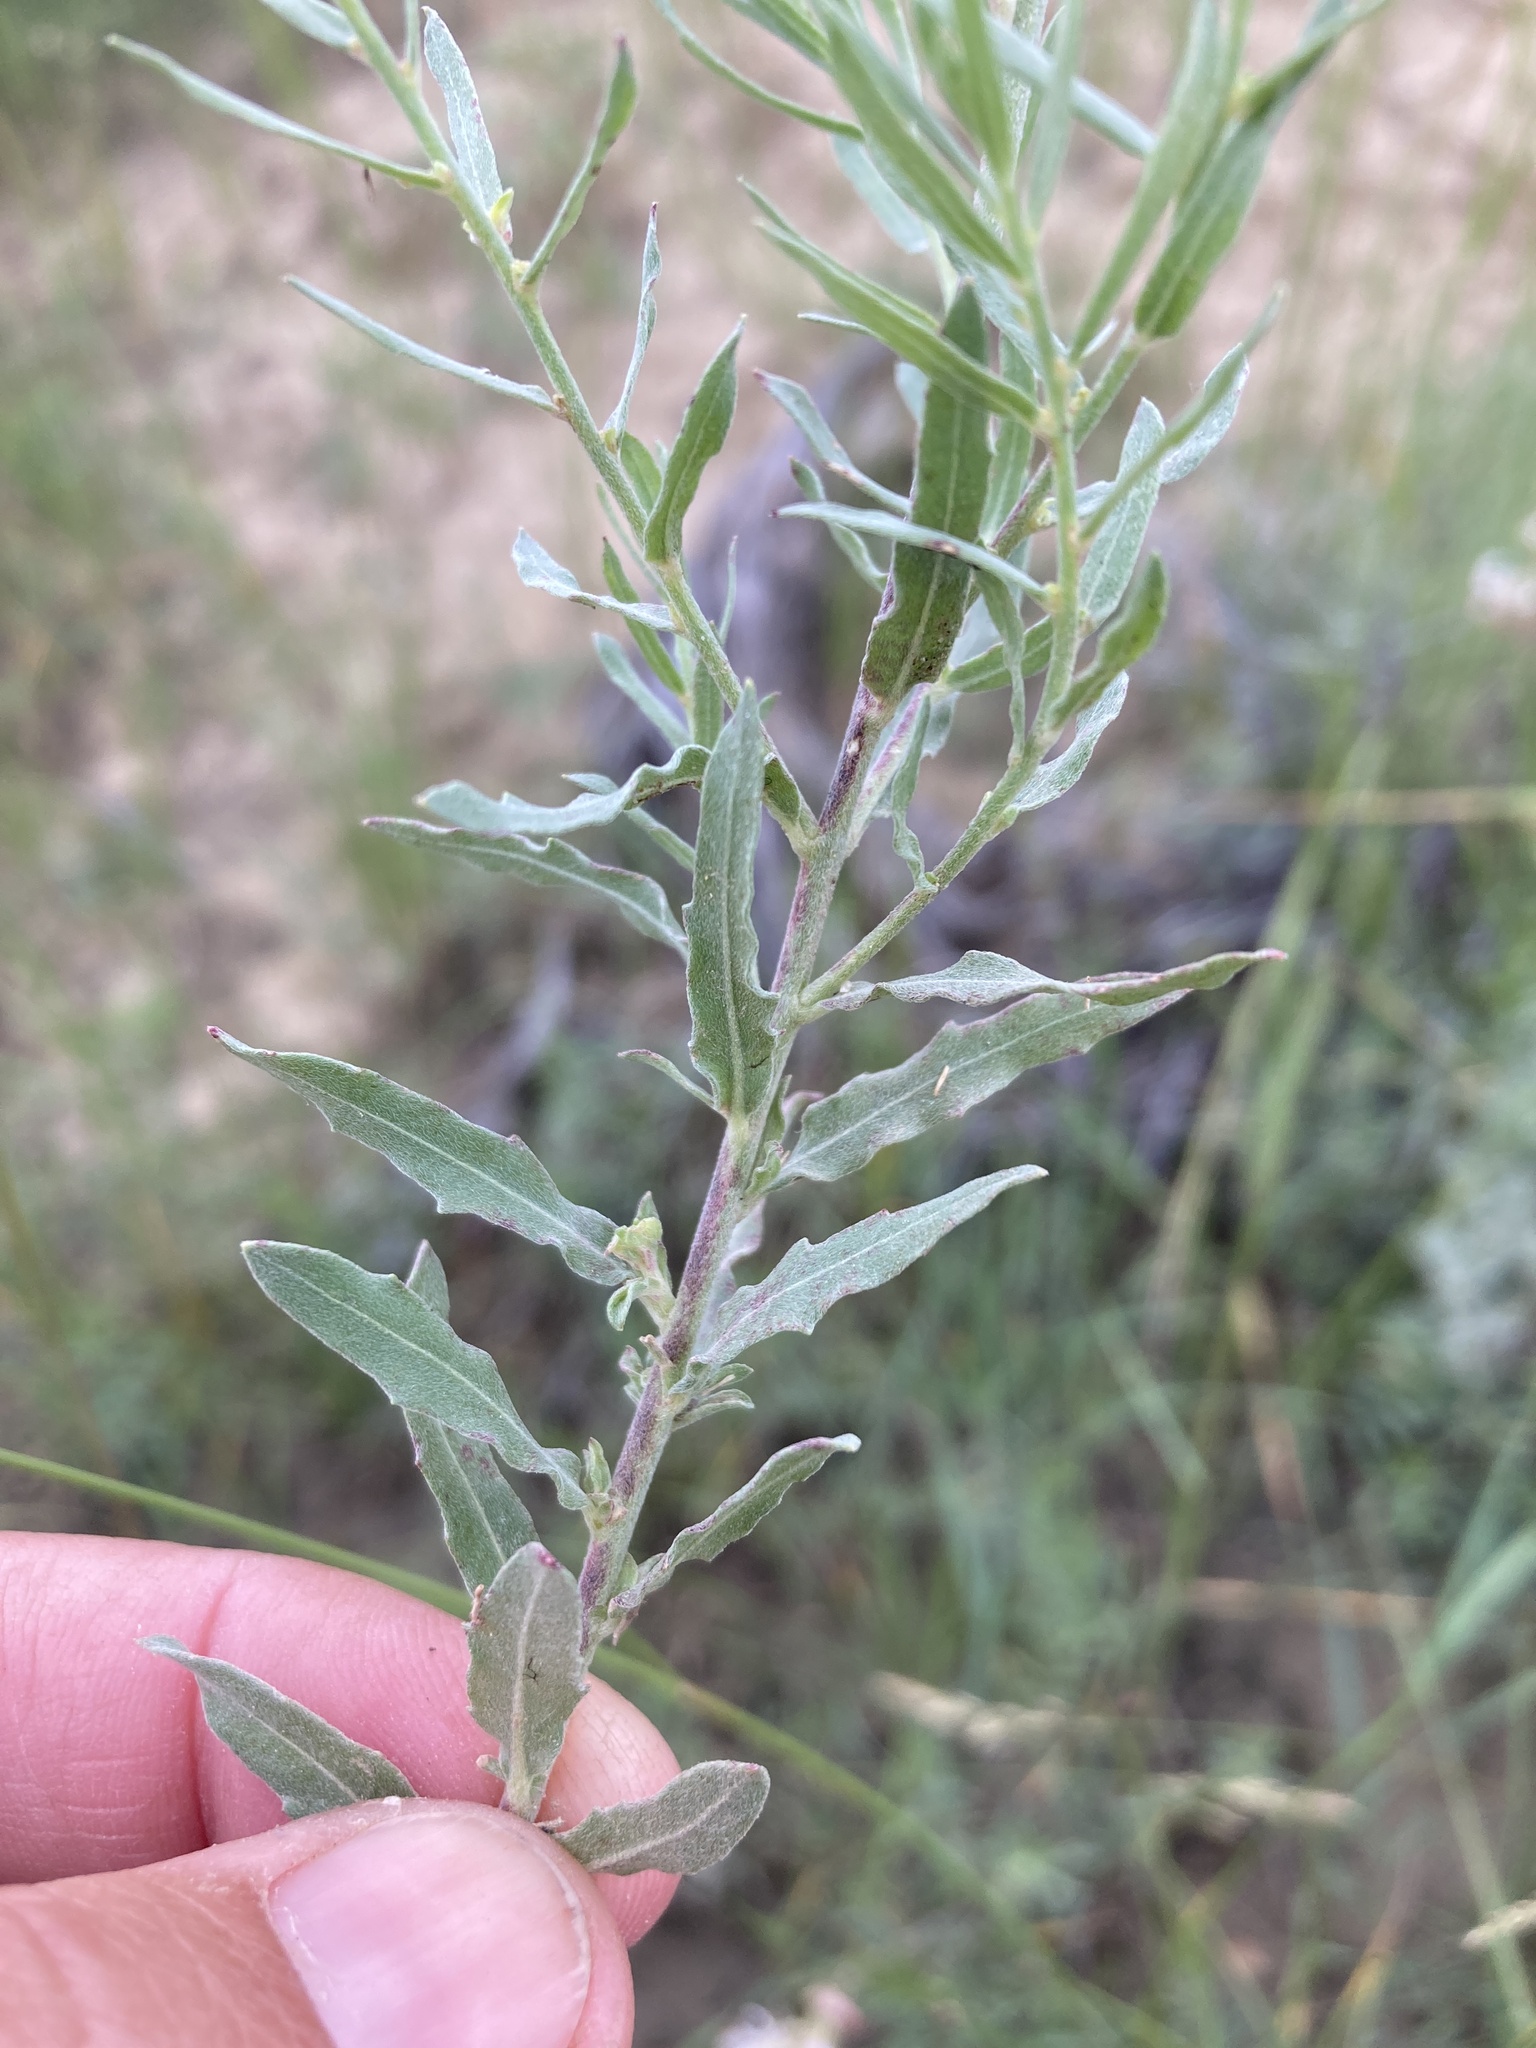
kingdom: Plantae
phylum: Tracheophyta
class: Magnoliopsida
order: Myrtales
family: Onagraceae
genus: Oenothera
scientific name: Oenothera suffrutescens
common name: Scarlet beeblossom
